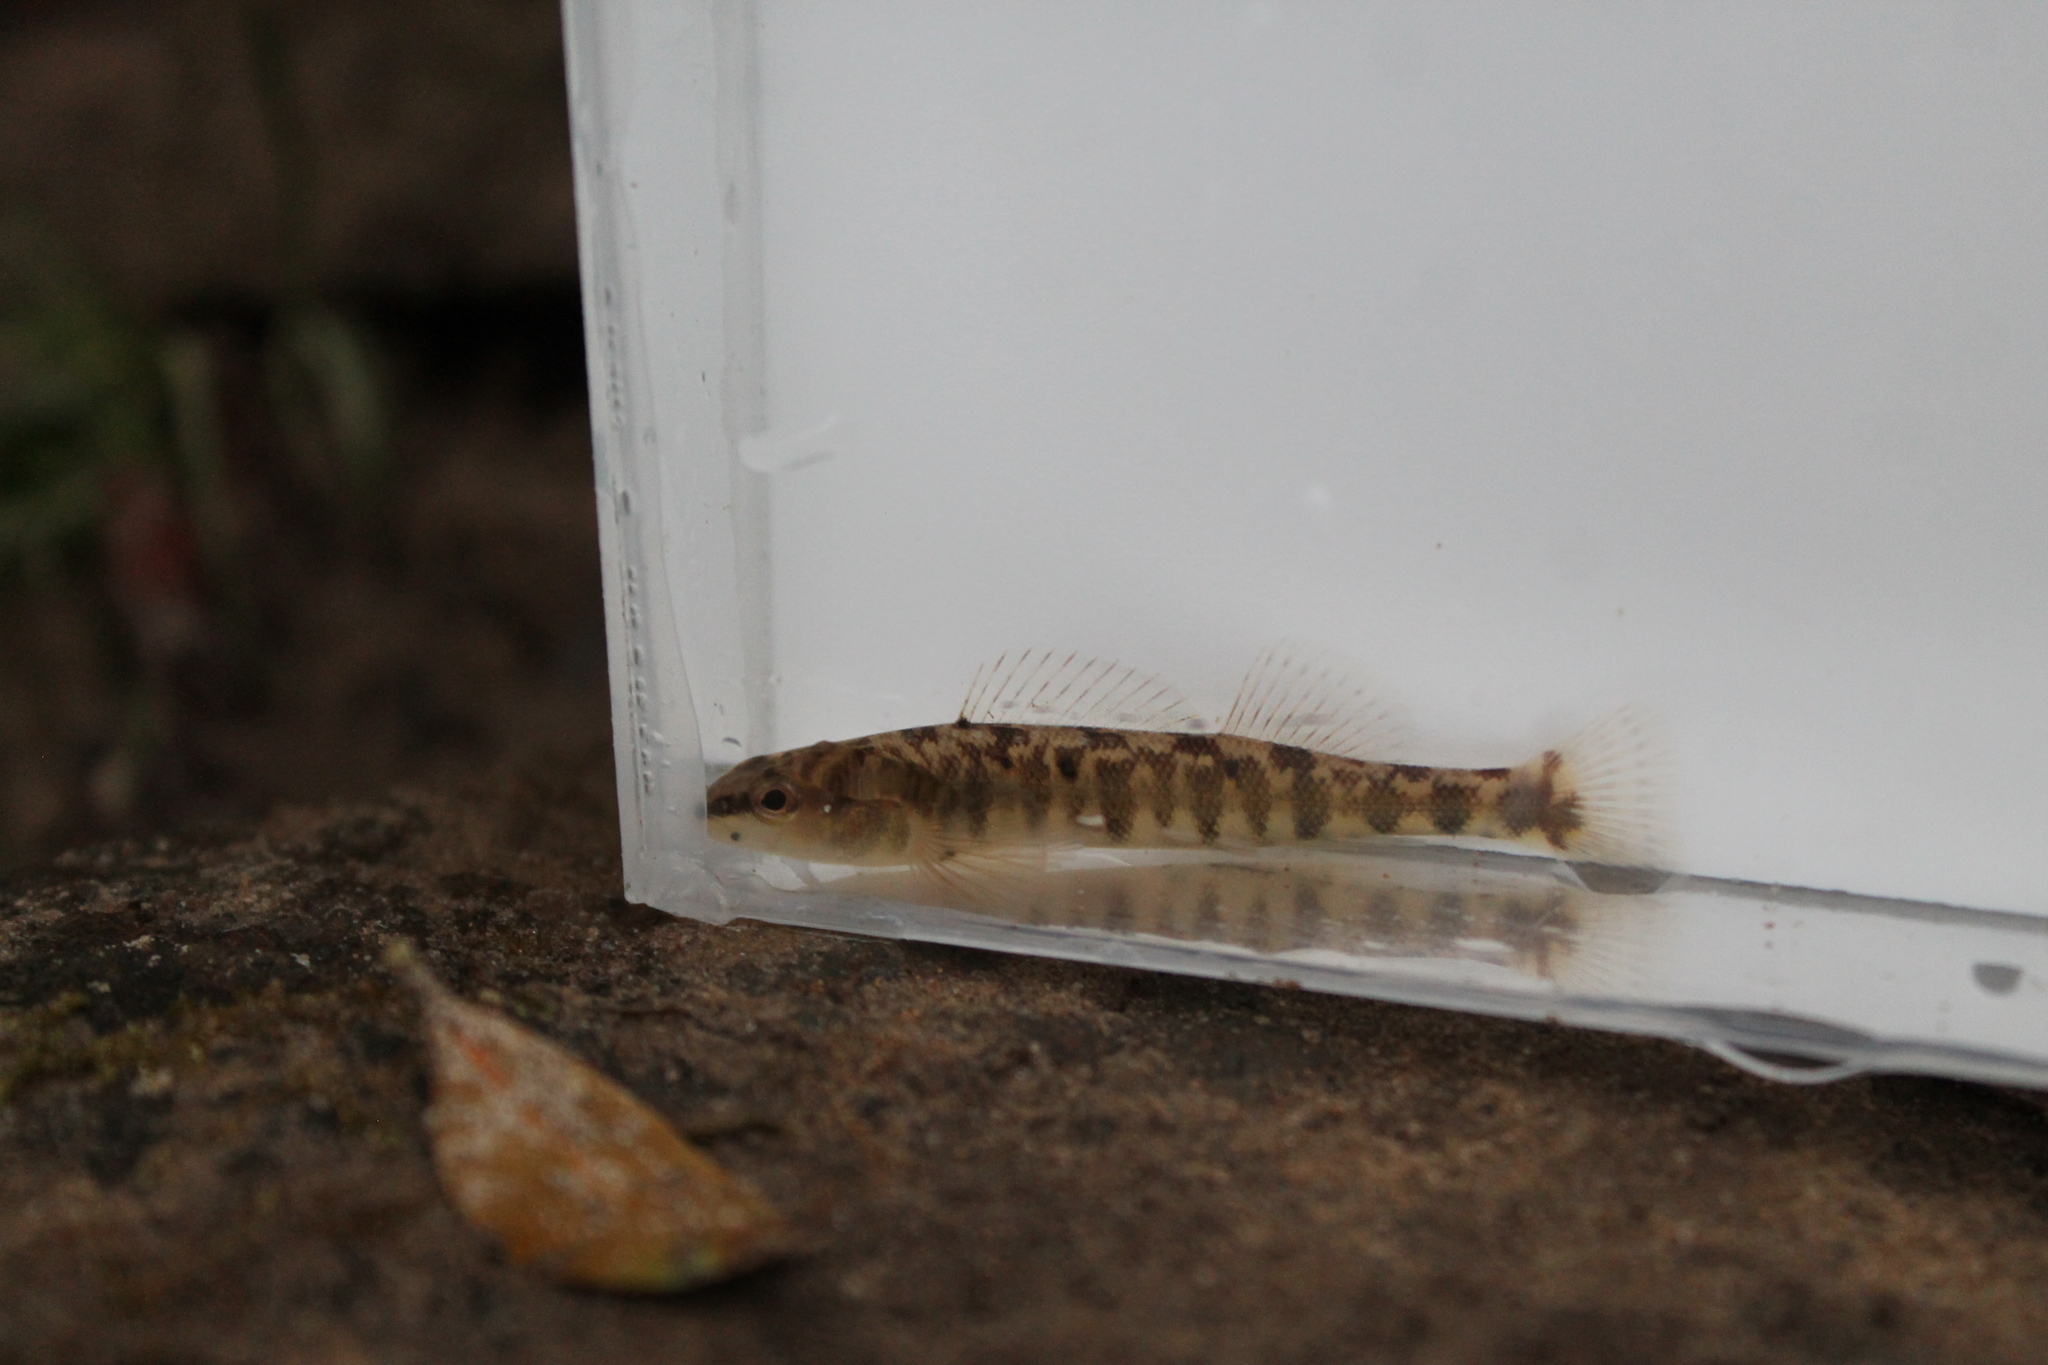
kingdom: Animalia
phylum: Chordata
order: Perciformes
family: Percidae
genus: Percina
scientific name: Percina nigrofasciata
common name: Blackbanded darter
